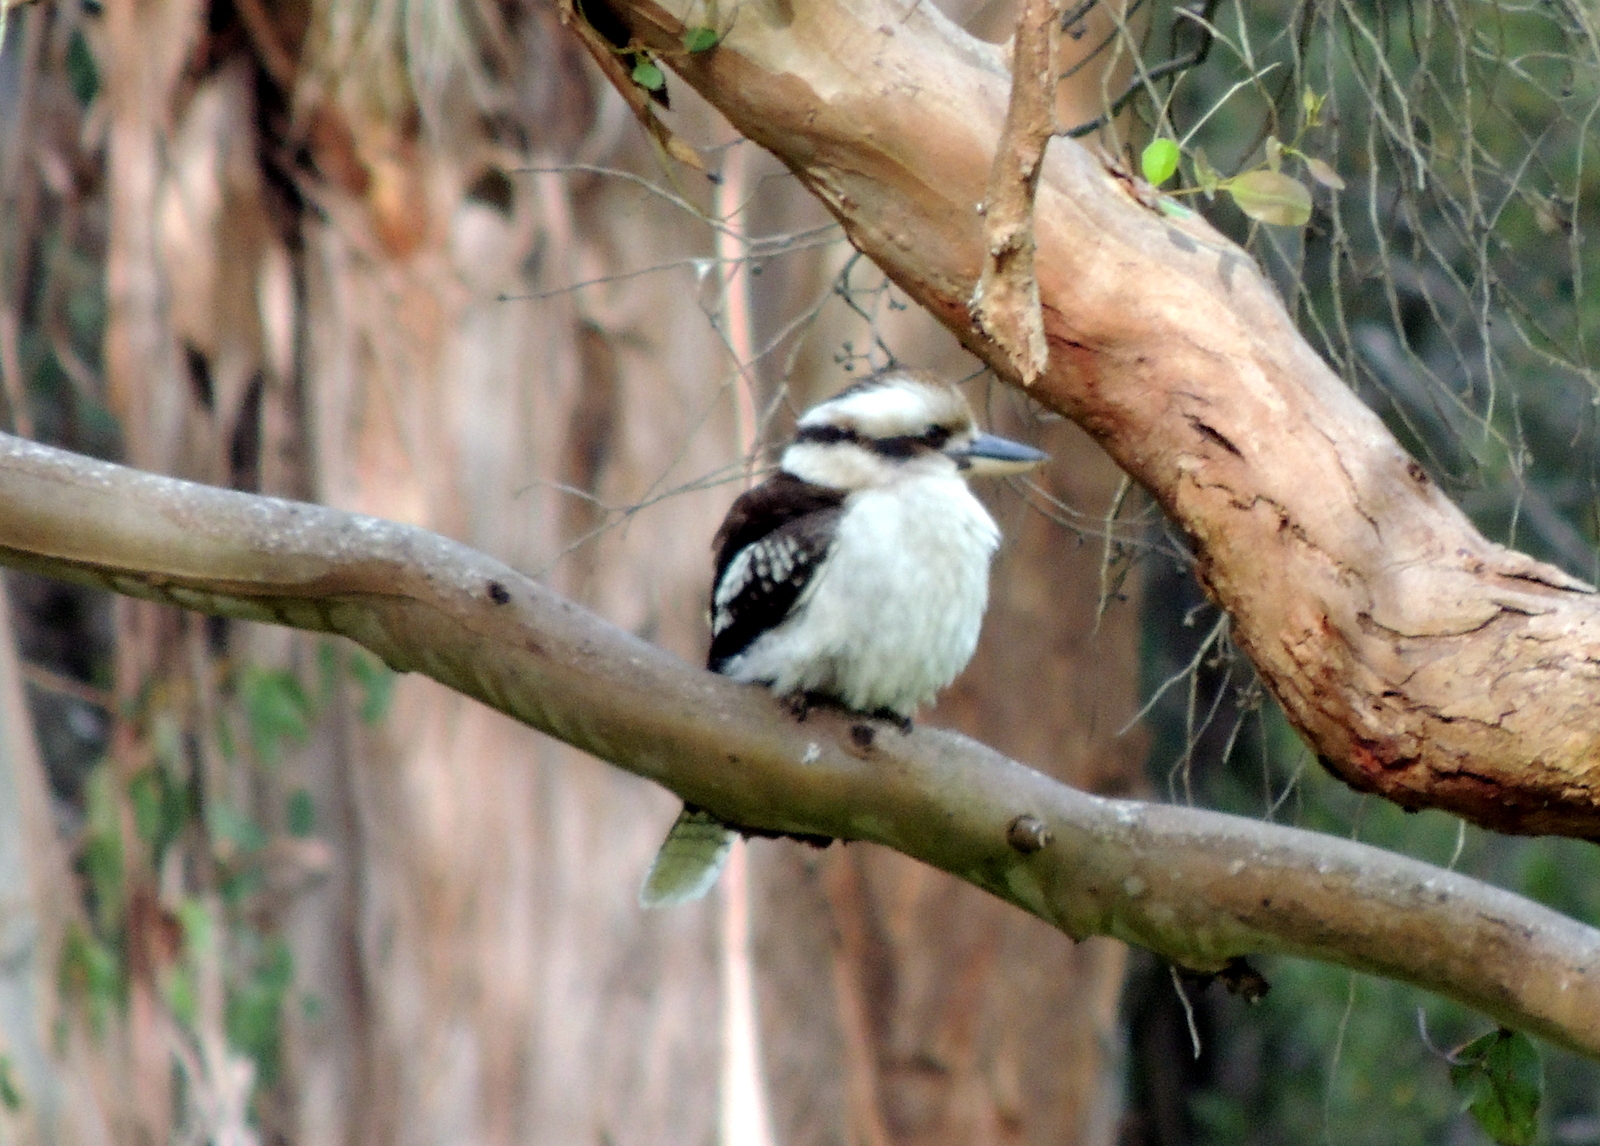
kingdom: Animalia
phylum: Chordata
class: Aves
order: Coraciiformes
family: Alcedinidae
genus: Dacelo
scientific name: Dacelo novaeguineae
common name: Laughing kookaburra
